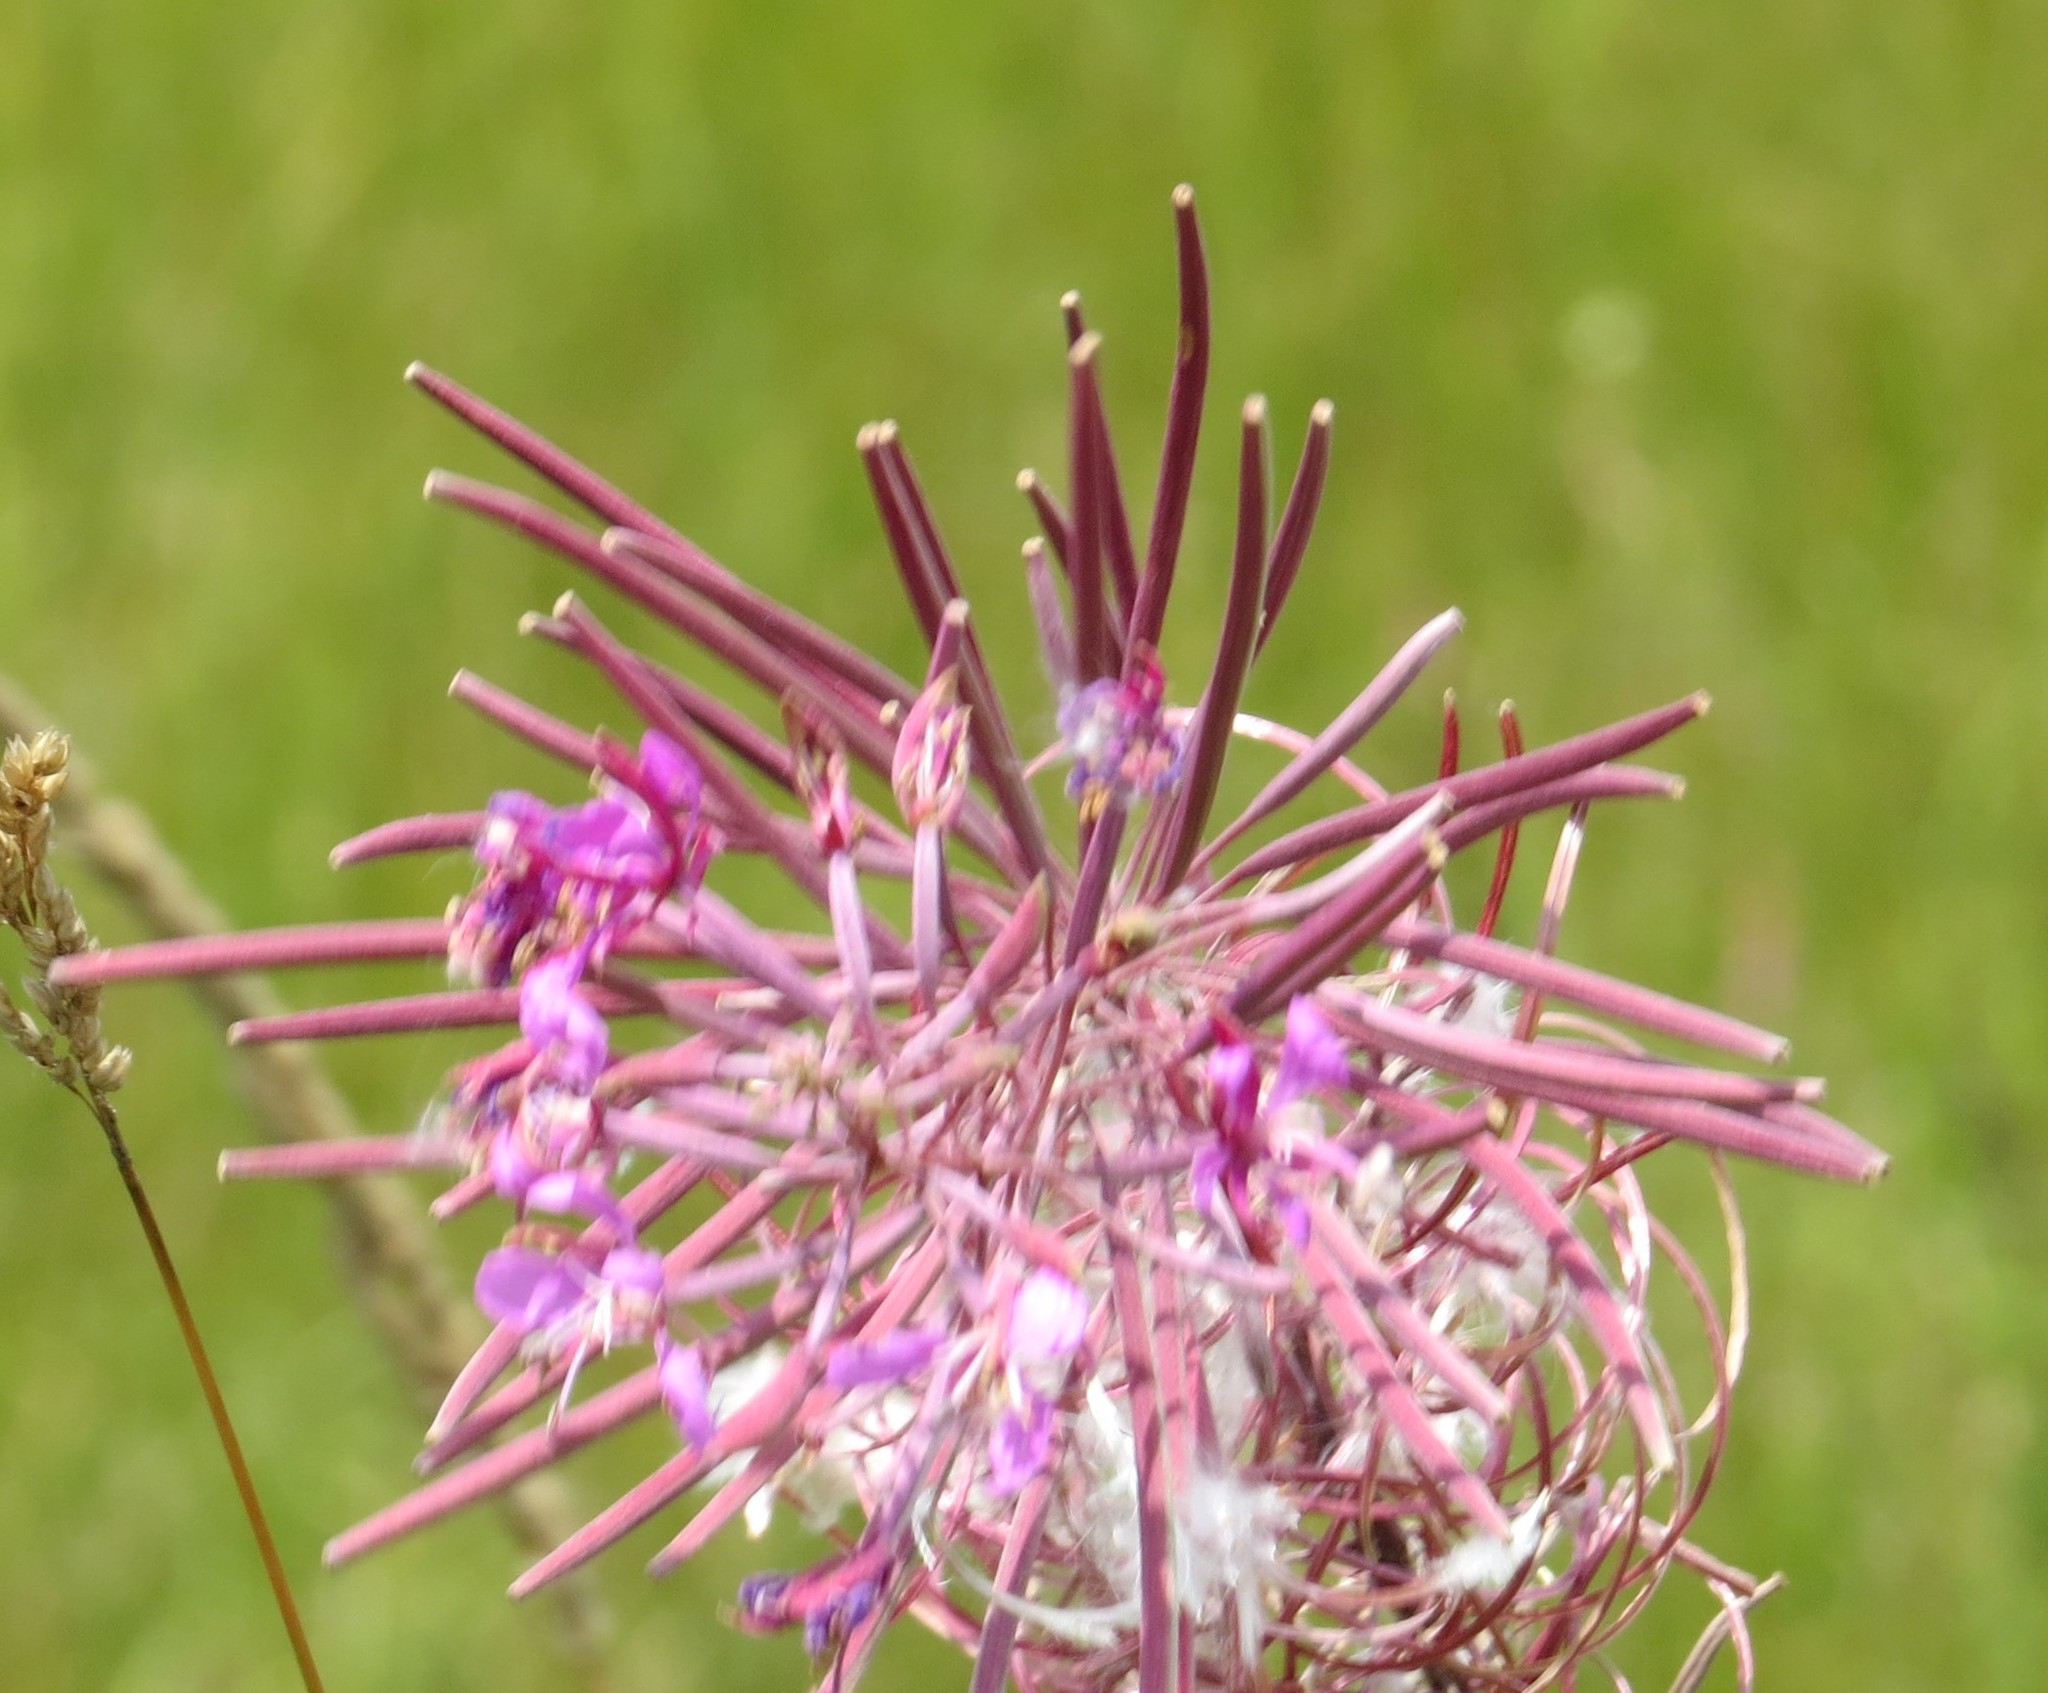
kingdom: Plantae
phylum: Tracheophyta
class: Magnoliopsida
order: Myrtales
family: Onagraceae
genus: Chamaenerion
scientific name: Chamaenerion angustifolium
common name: Fireweed
